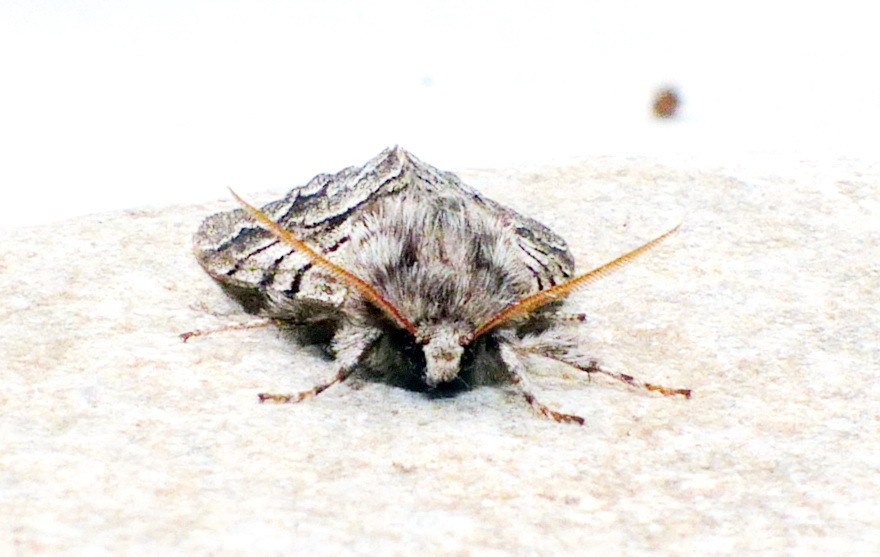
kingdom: Animalia
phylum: Arthropoda
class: Insecta
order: Lepidoptera
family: Noctuidae
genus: Panthea
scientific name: Panthea furcilla
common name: Eastern panthea moth
